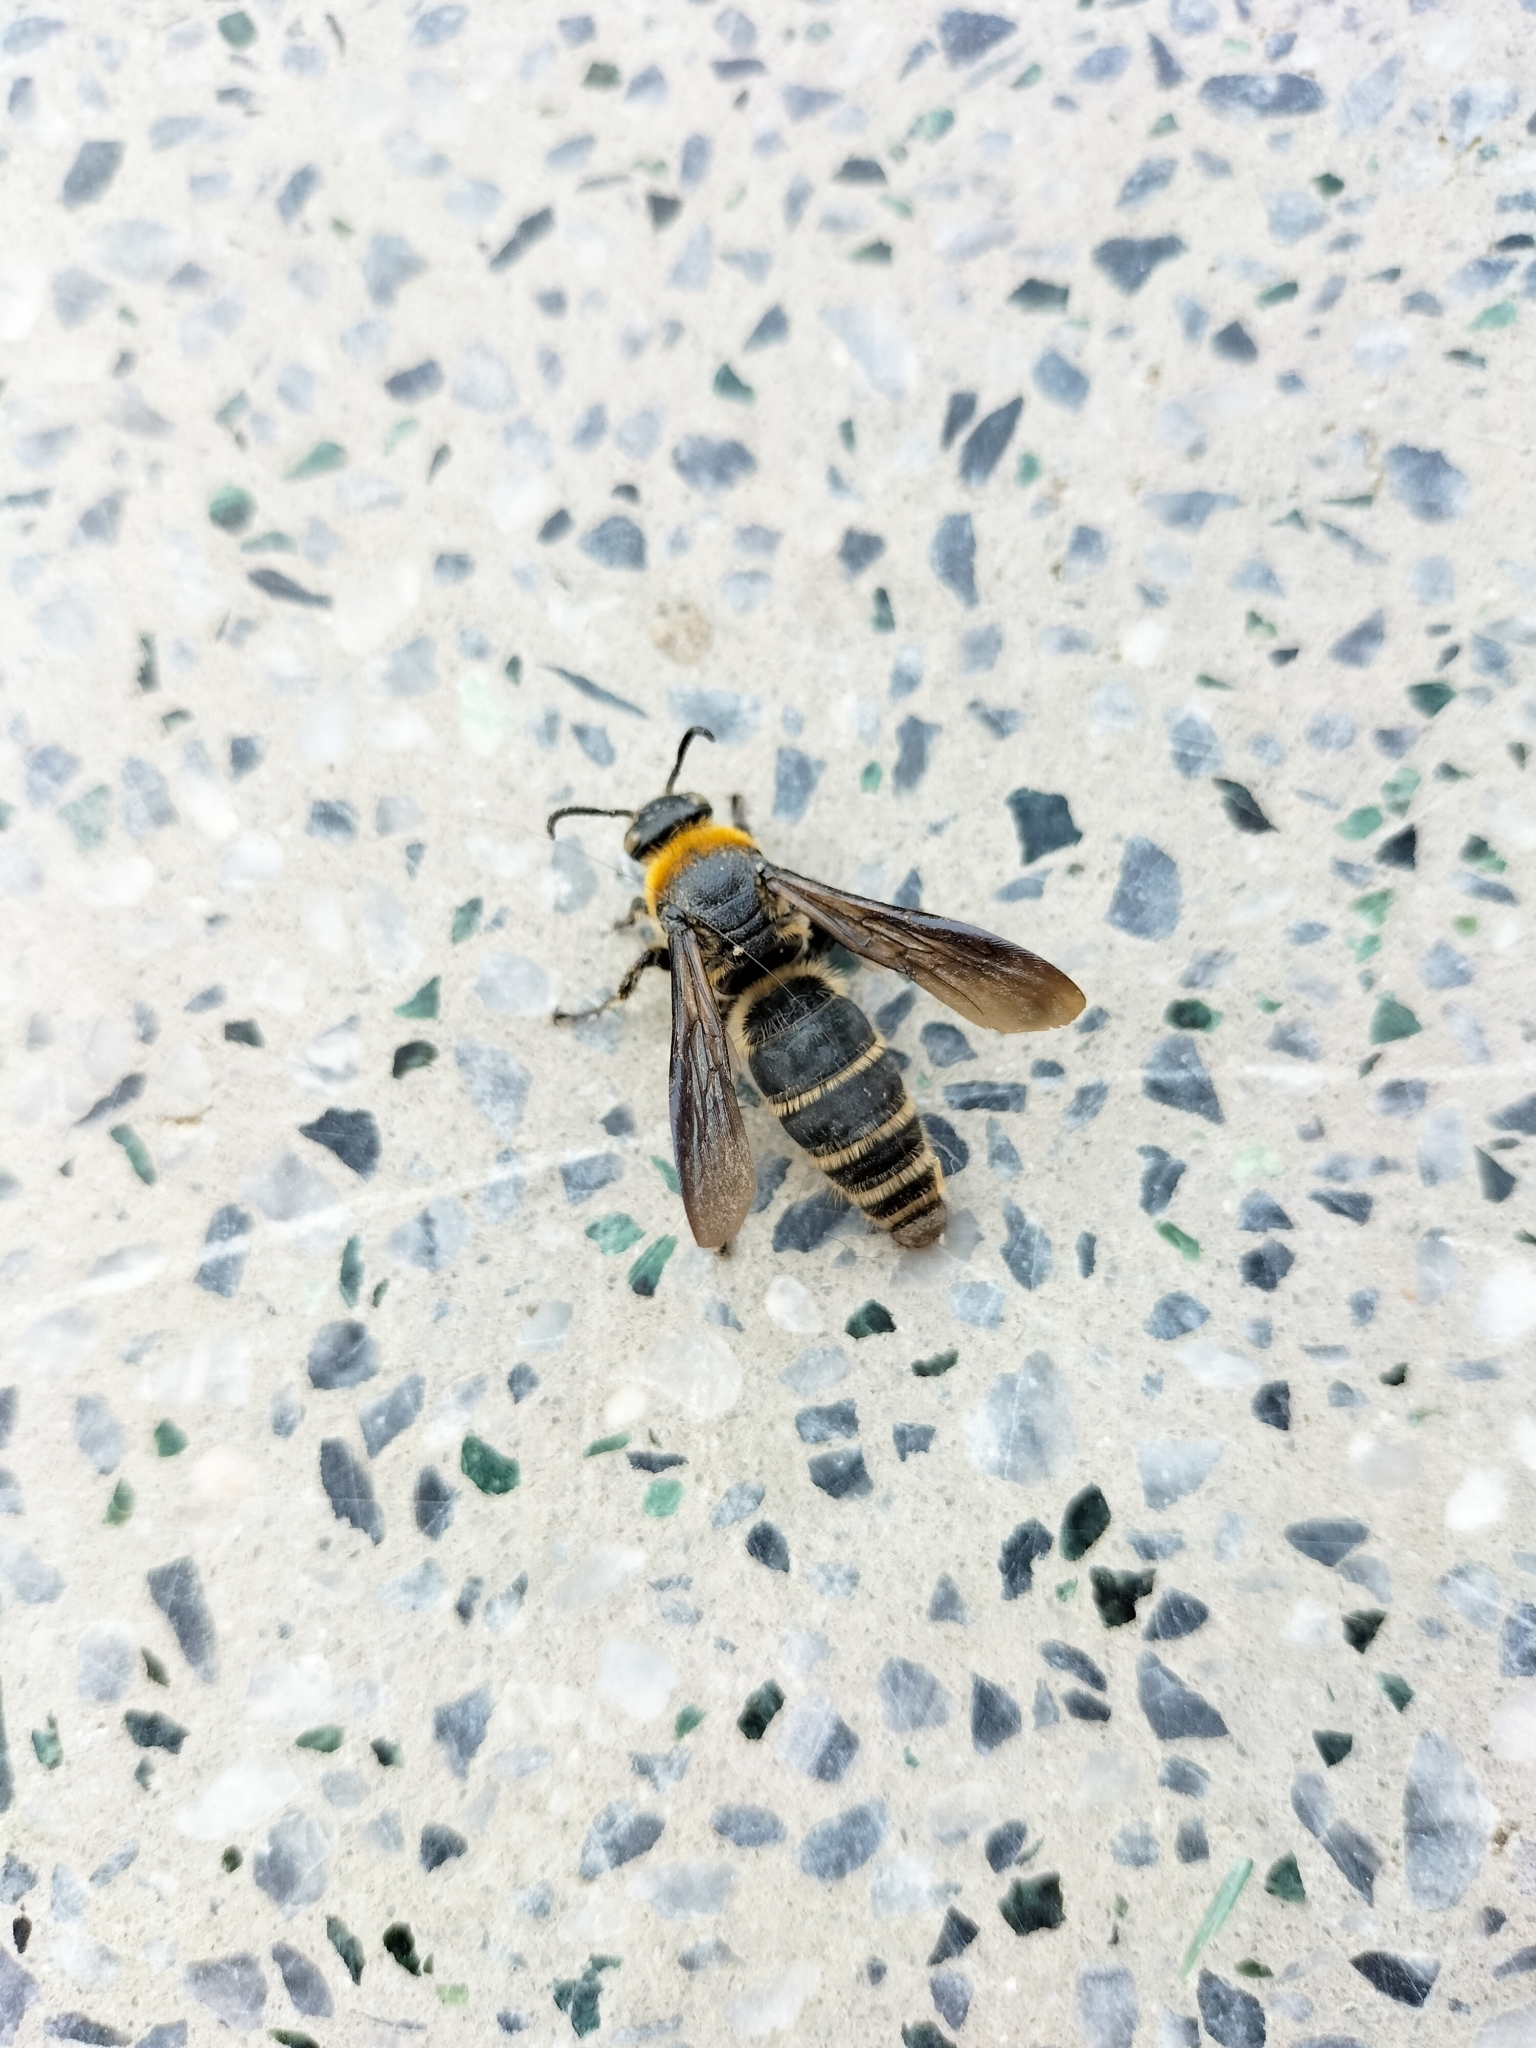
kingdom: Animalia
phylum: Arthropoda
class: Insecta
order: Hymenoptera
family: Scoliidae
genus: Campsomeriella
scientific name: Campsomeriella sauteri
